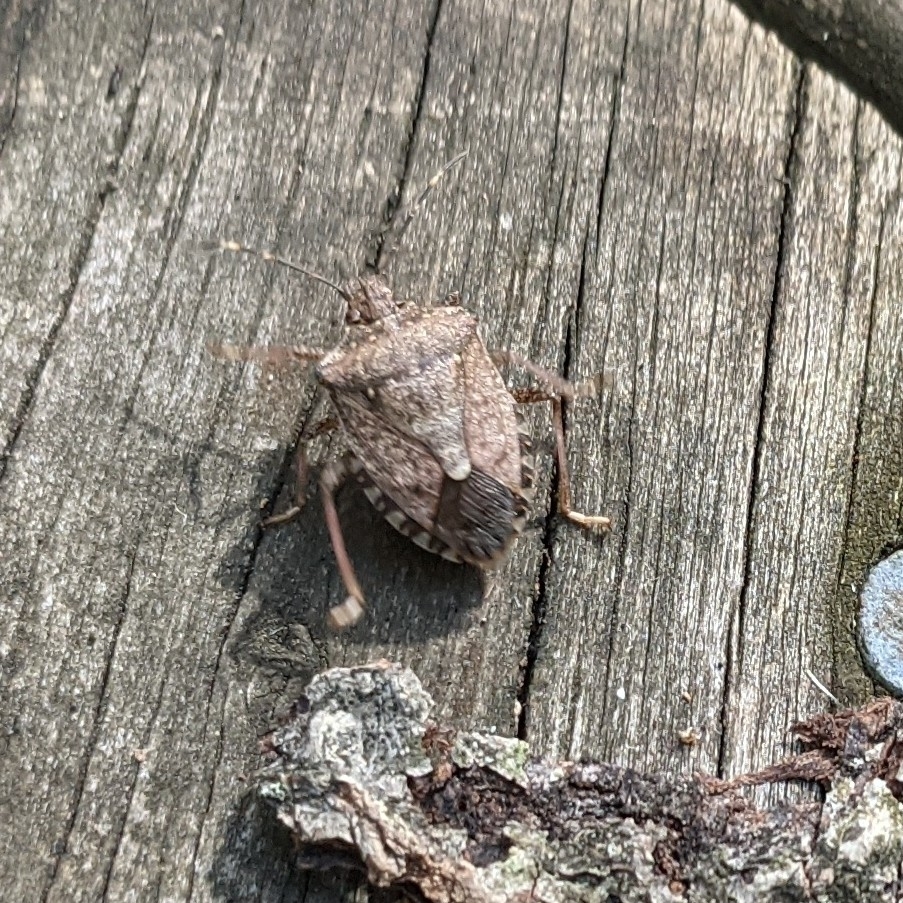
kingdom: Animalia
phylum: Arthropoda
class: Insecta
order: Hemiptera
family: Pentatomidae
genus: Halyomorpha
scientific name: Halyomorpha halys
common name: Brown marmorated stink bug
